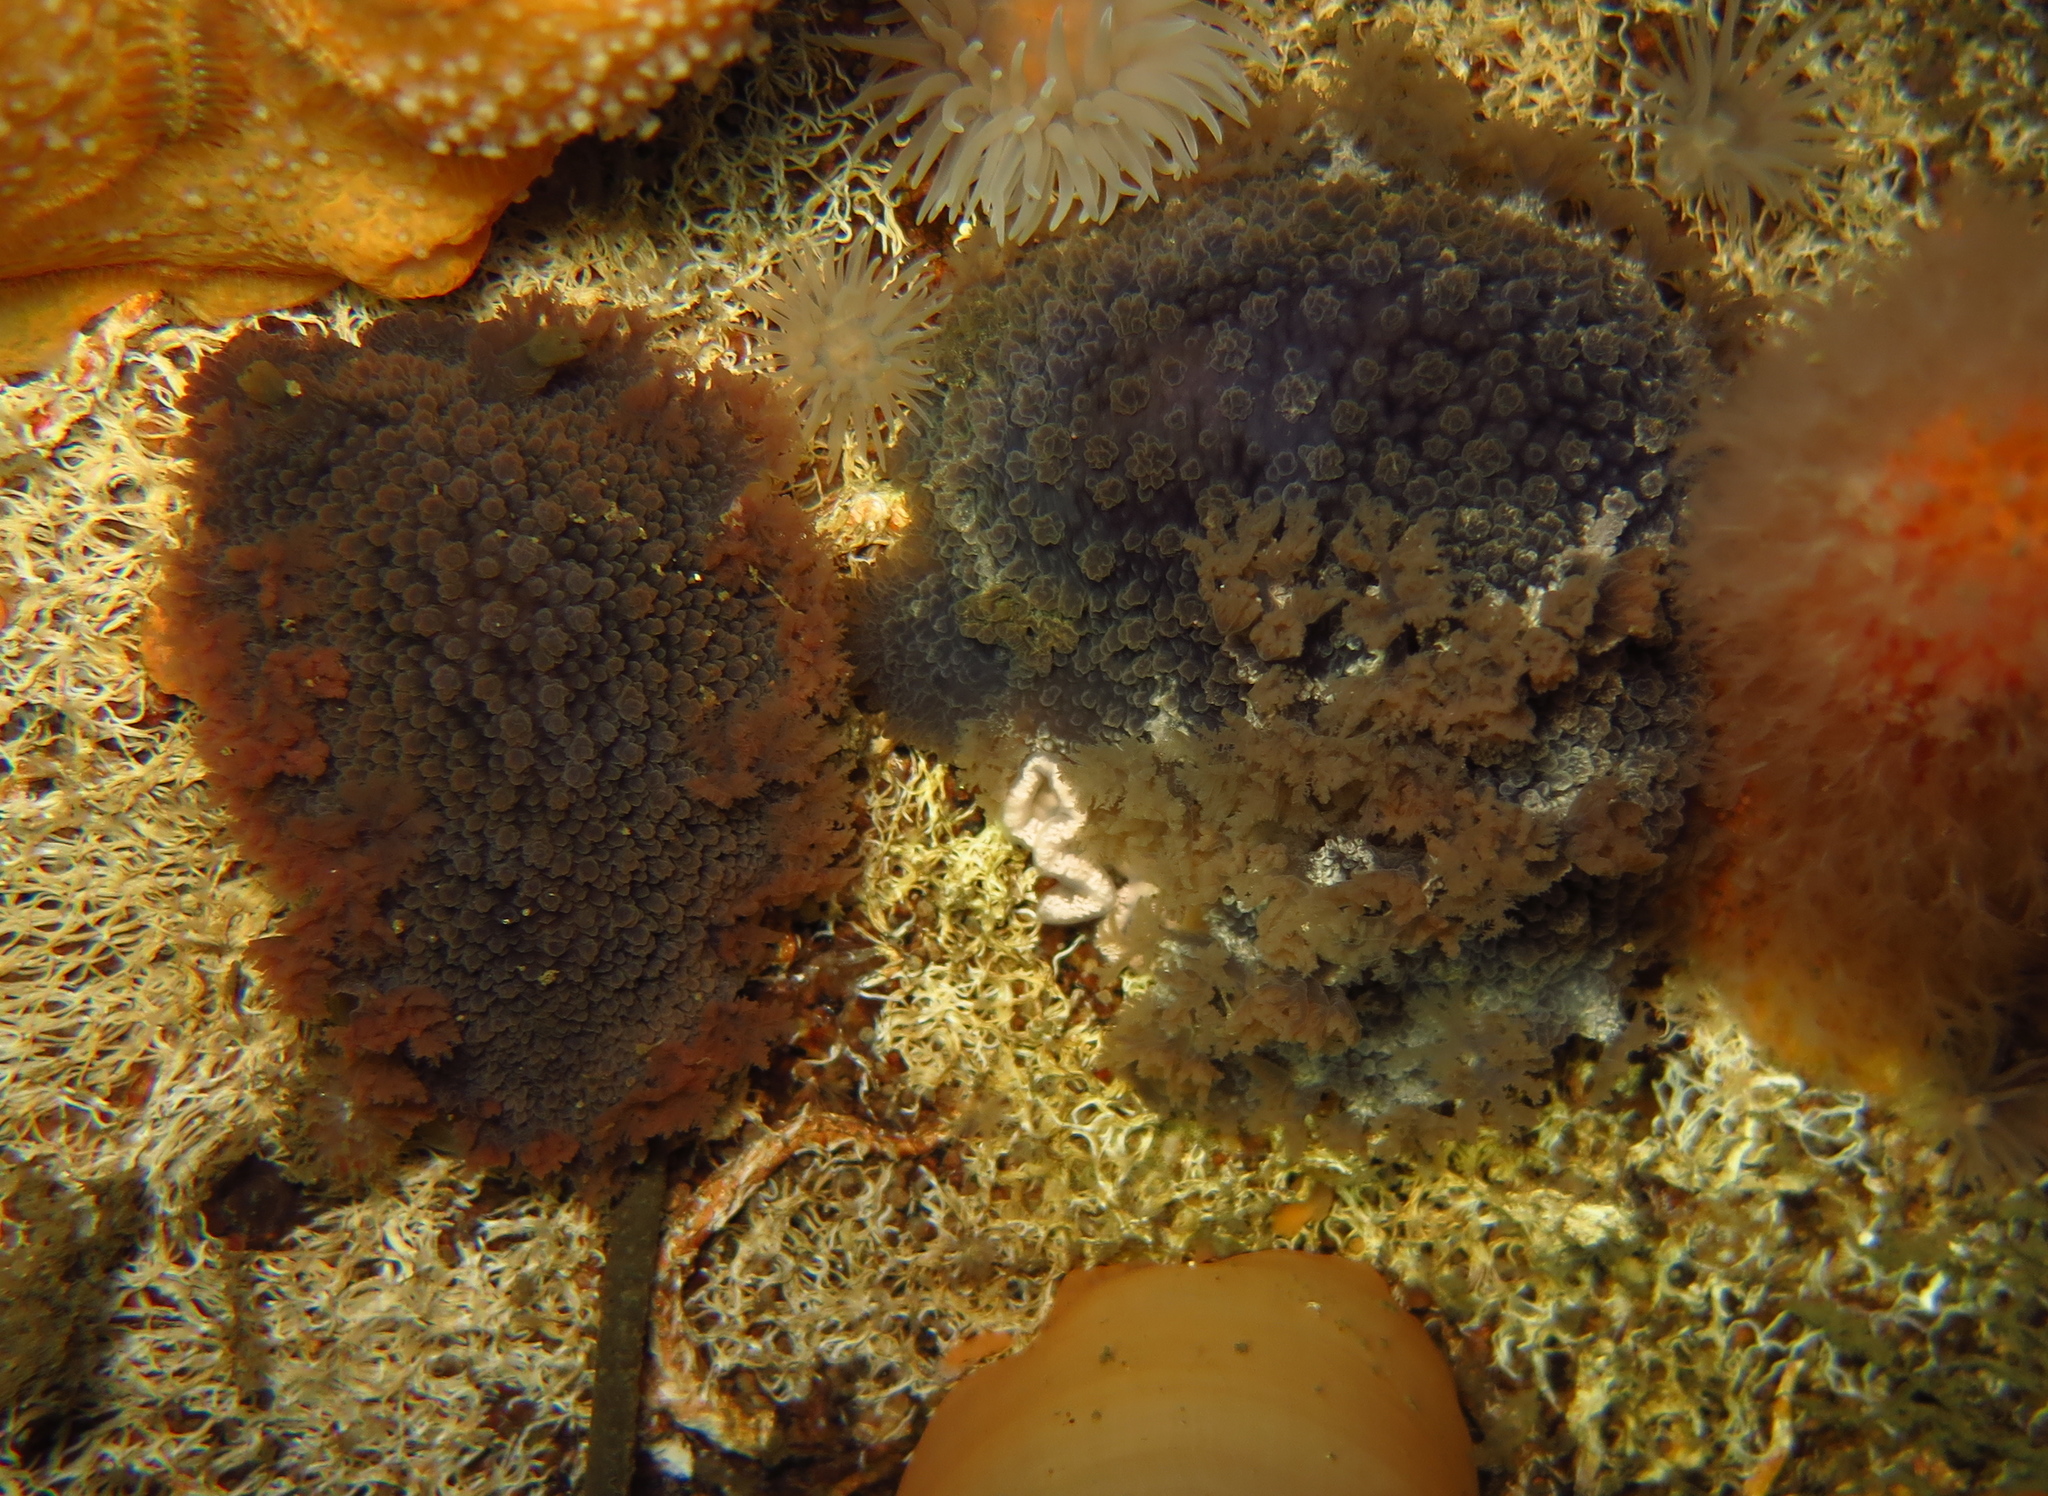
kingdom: Animalia
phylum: Mollusca
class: Gastropoda
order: Nudibranchia
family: Tritoniidae
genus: Tritonia
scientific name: Tritonia hombergii
